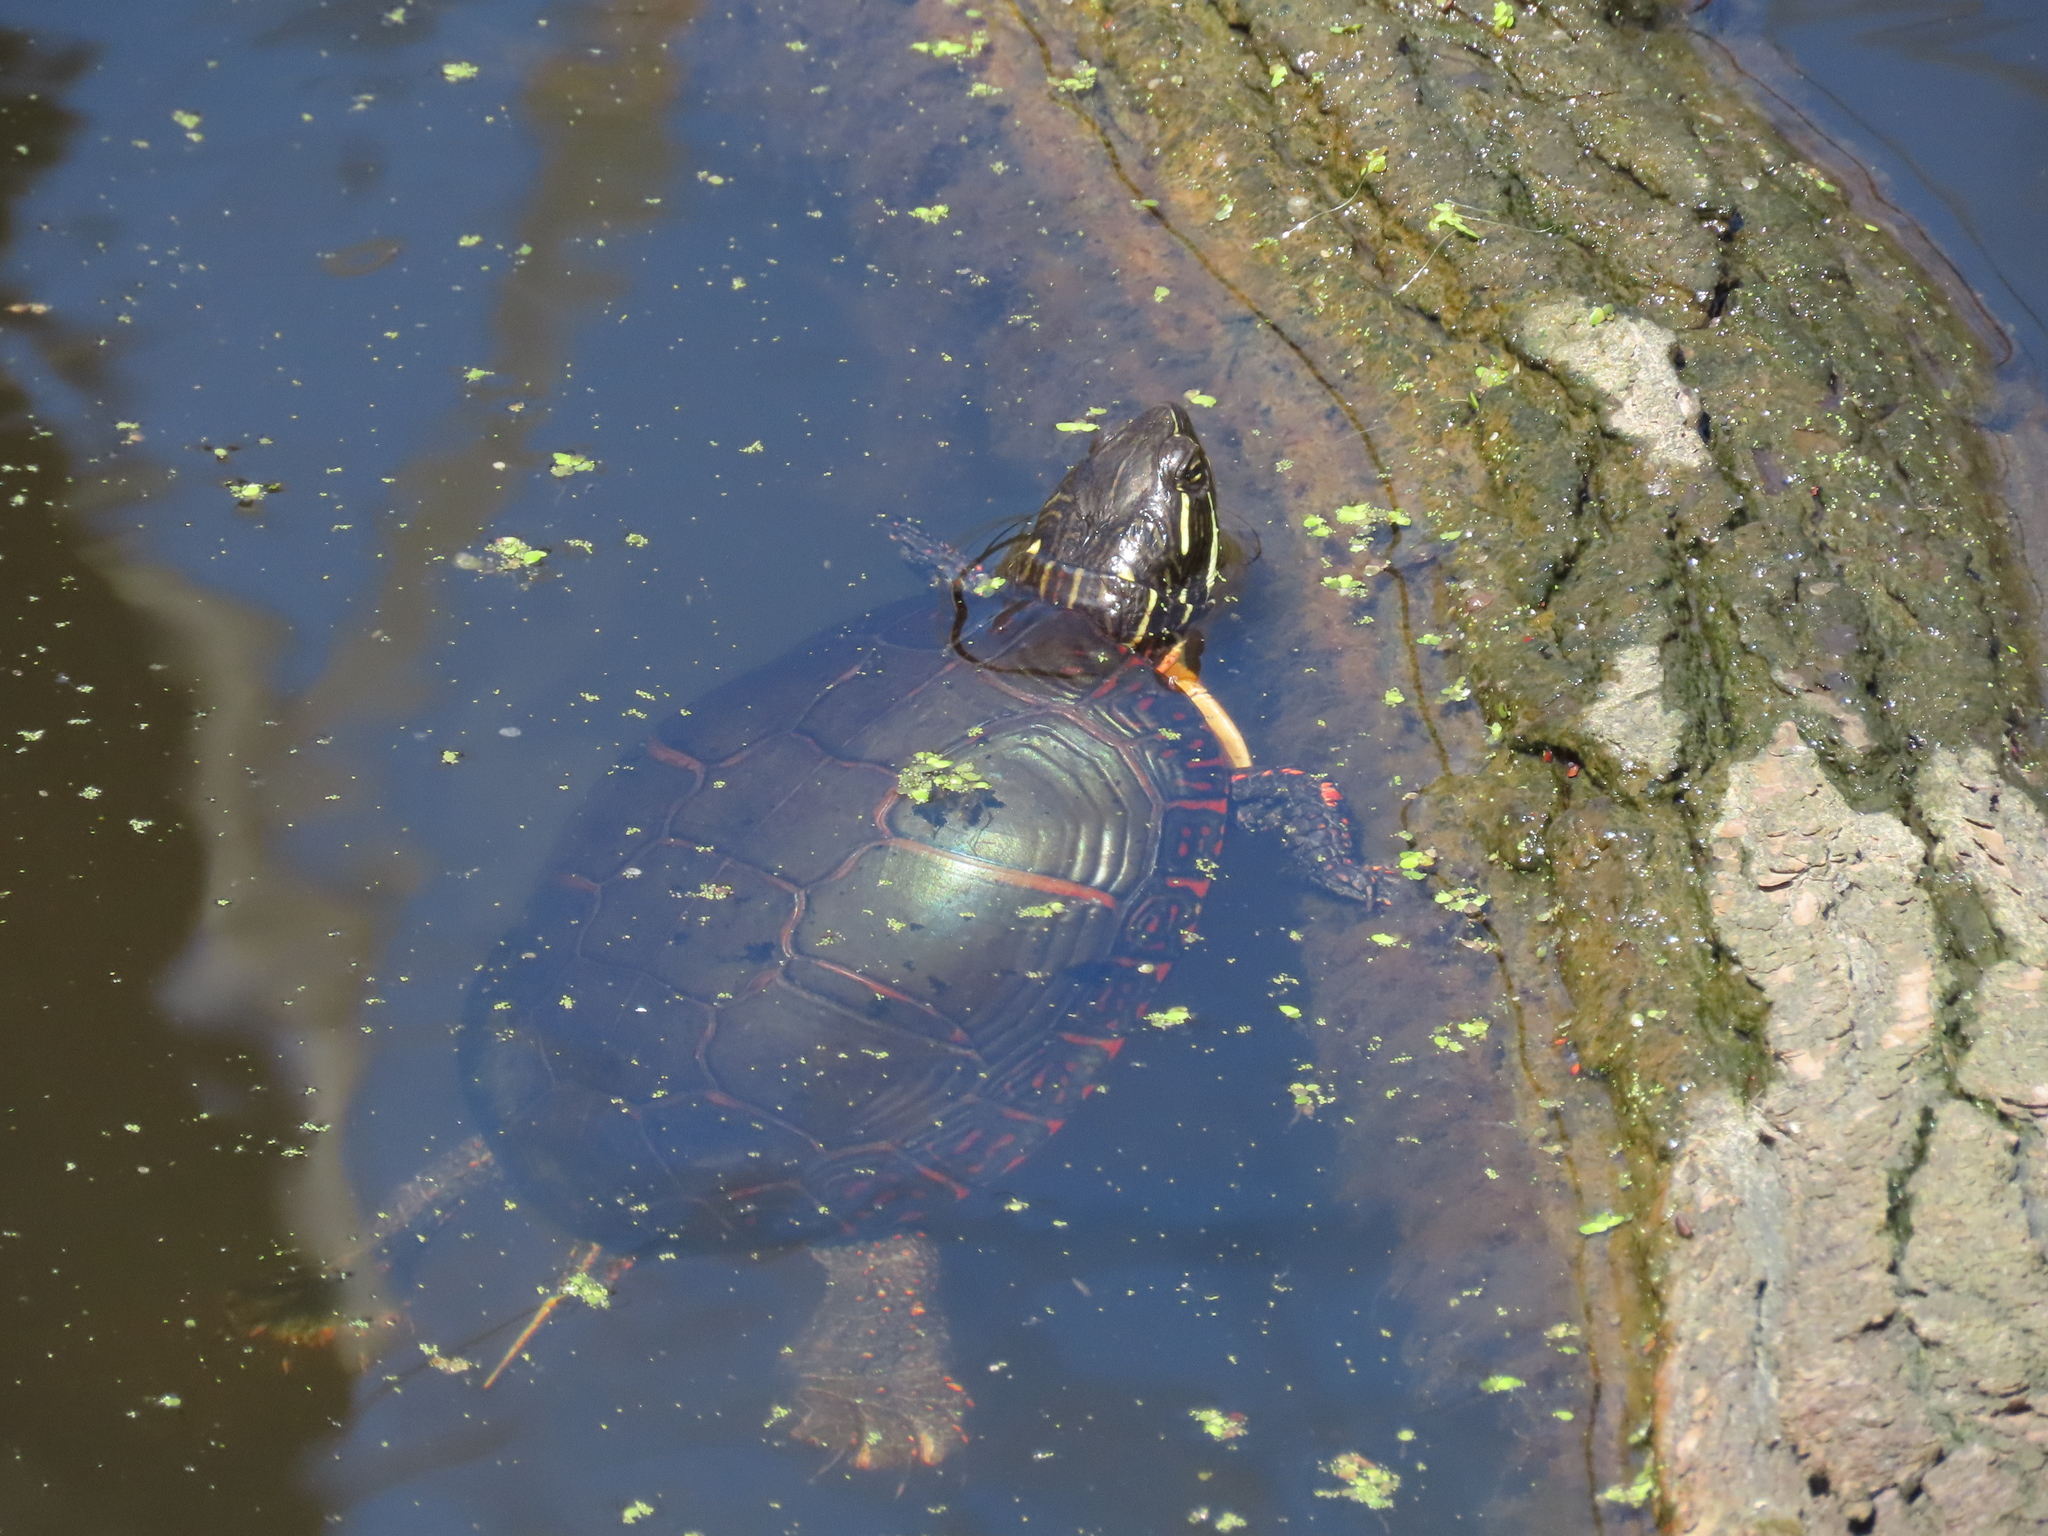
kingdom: Animalia
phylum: Chordata
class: Testudines
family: Emydidae
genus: Chrysemys
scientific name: Chrysemys picta
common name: Painted turtle
